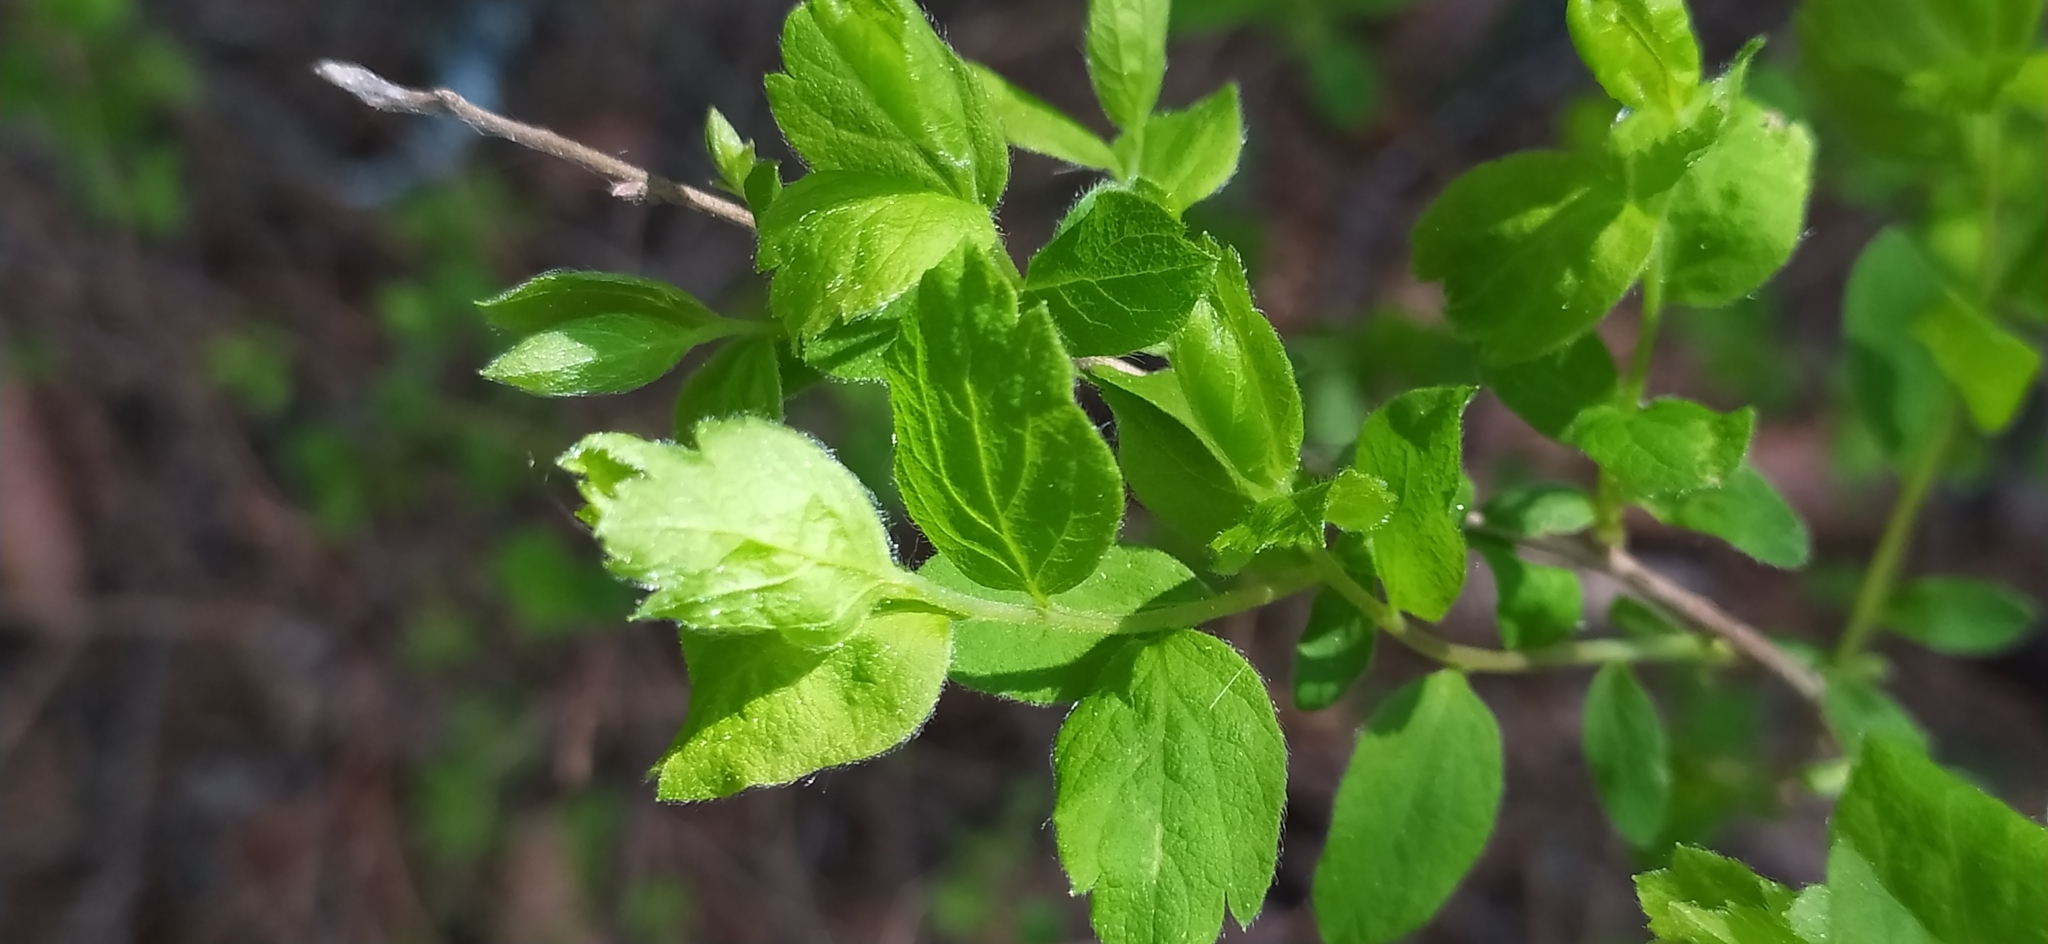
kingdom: Plantae
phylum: Tracheophyta
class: Magnoliopsida
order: Rosales
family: Rosaceae
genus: Spiraea
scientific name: Spiraea media
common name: Russian spiraea
